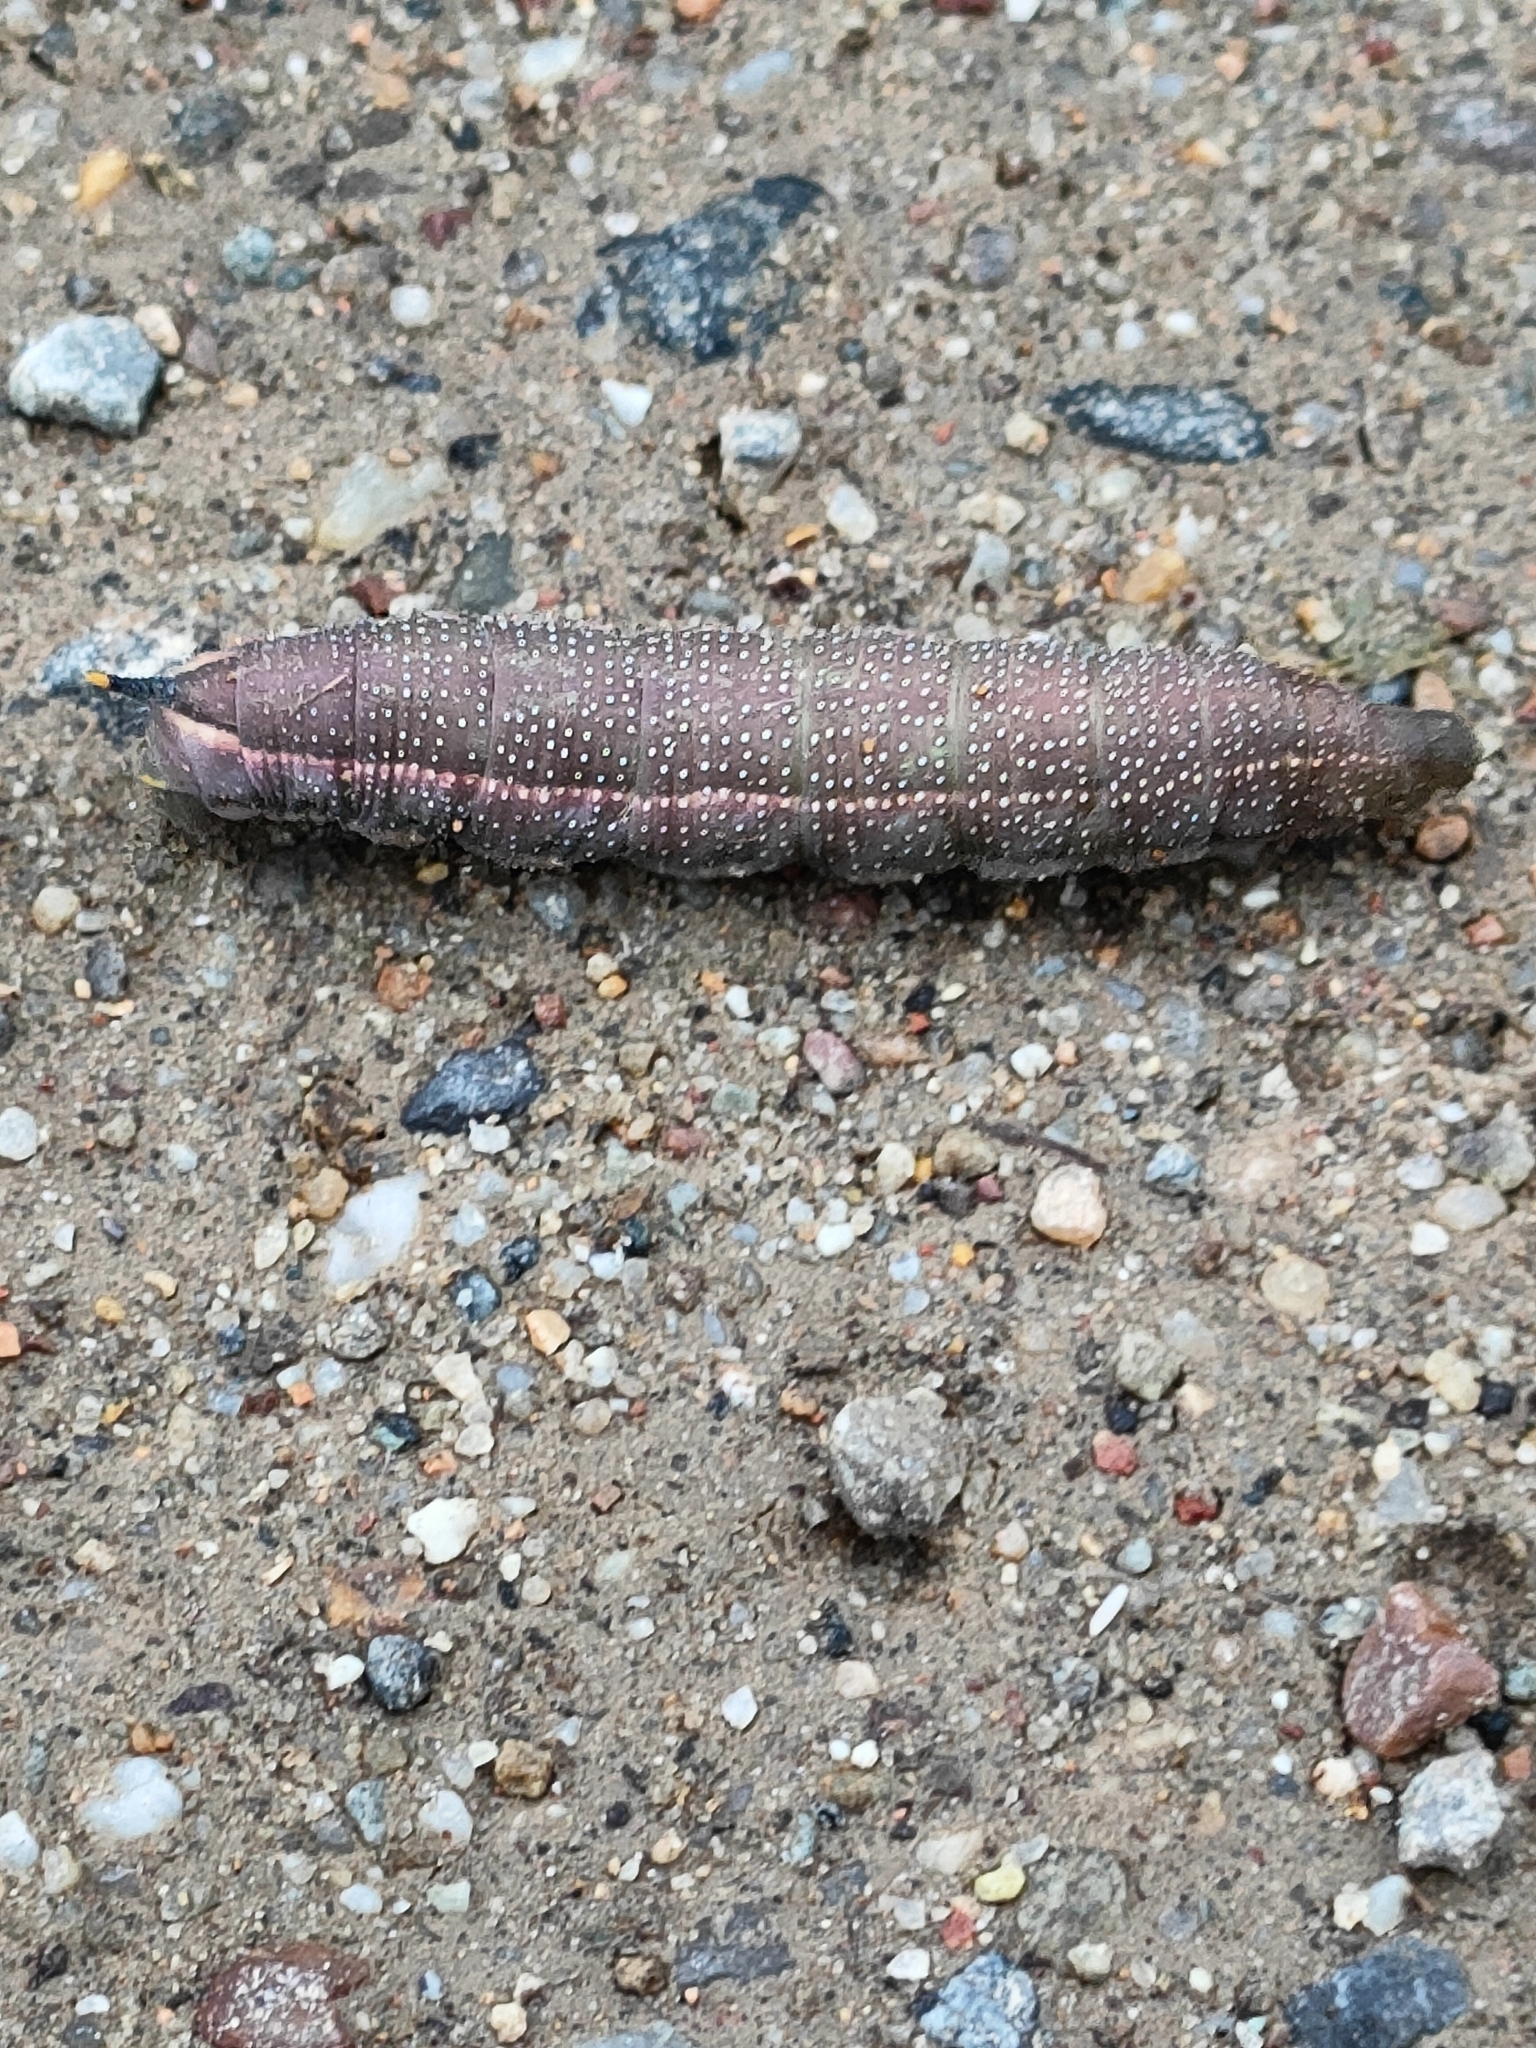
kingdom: Animalia
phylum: Arthropoda
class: Insecta
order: Lepidoptera
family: Sphingidae
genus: Macroglossum
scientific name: Macroglossum stellatarum
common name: Humming-bird hawk-moth
